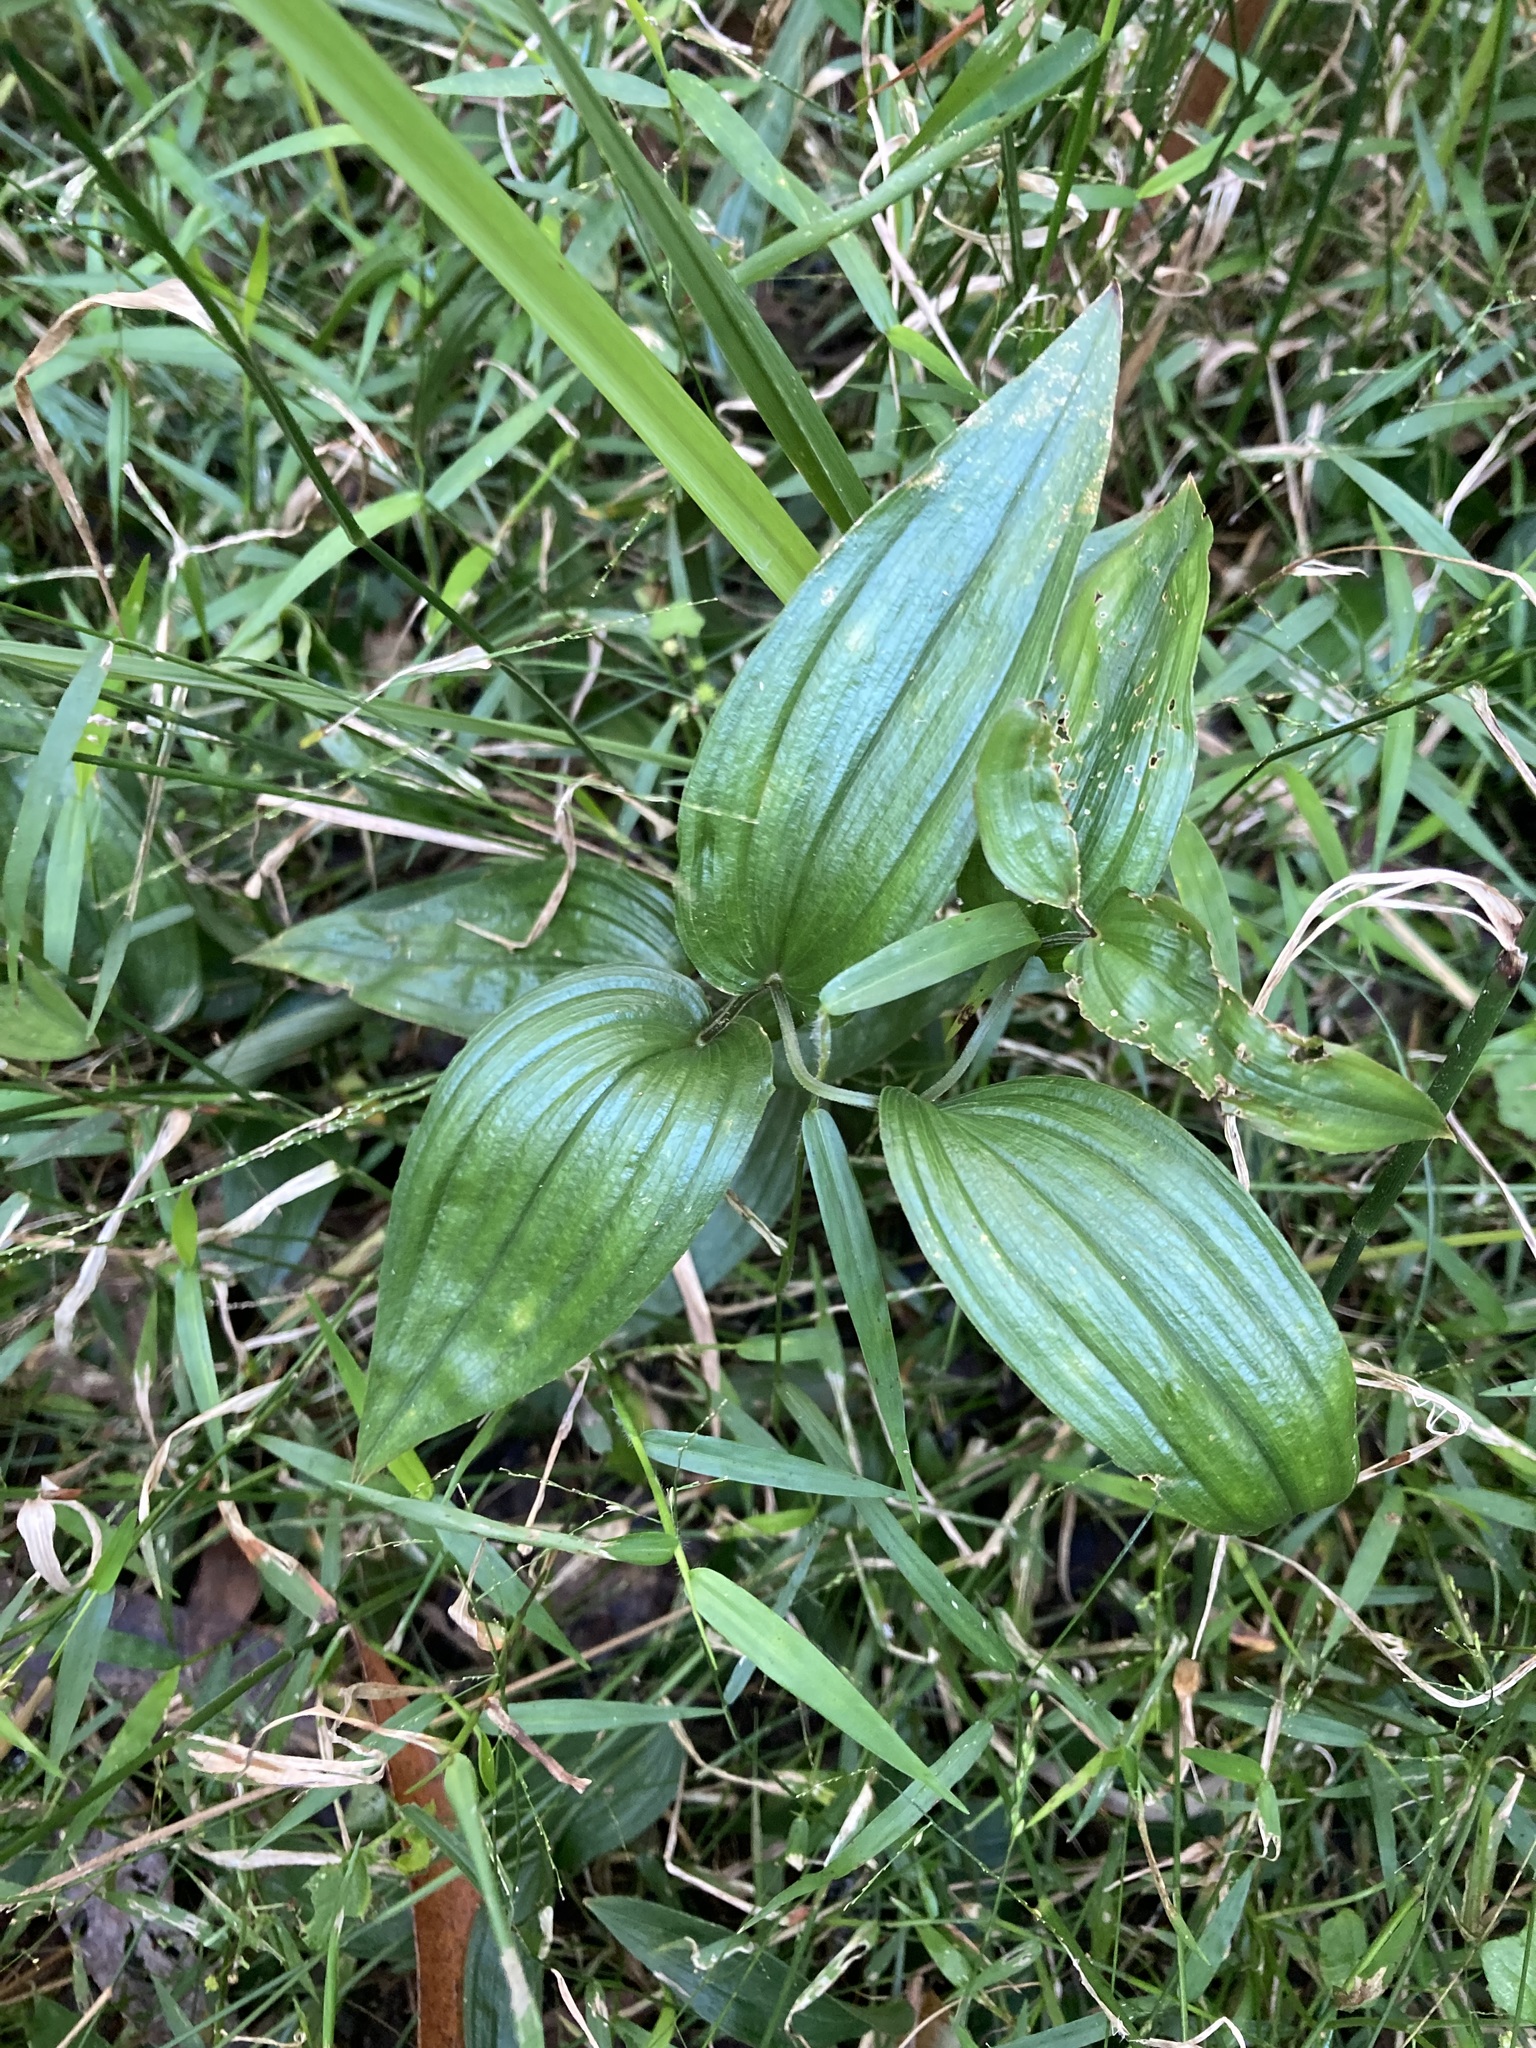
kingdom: Plantae
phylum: Tracheophyta
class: Liliopsida
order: Liliales
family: Colchicaceae
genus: Tripladenia
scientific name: Tripladenia cunninghamii
